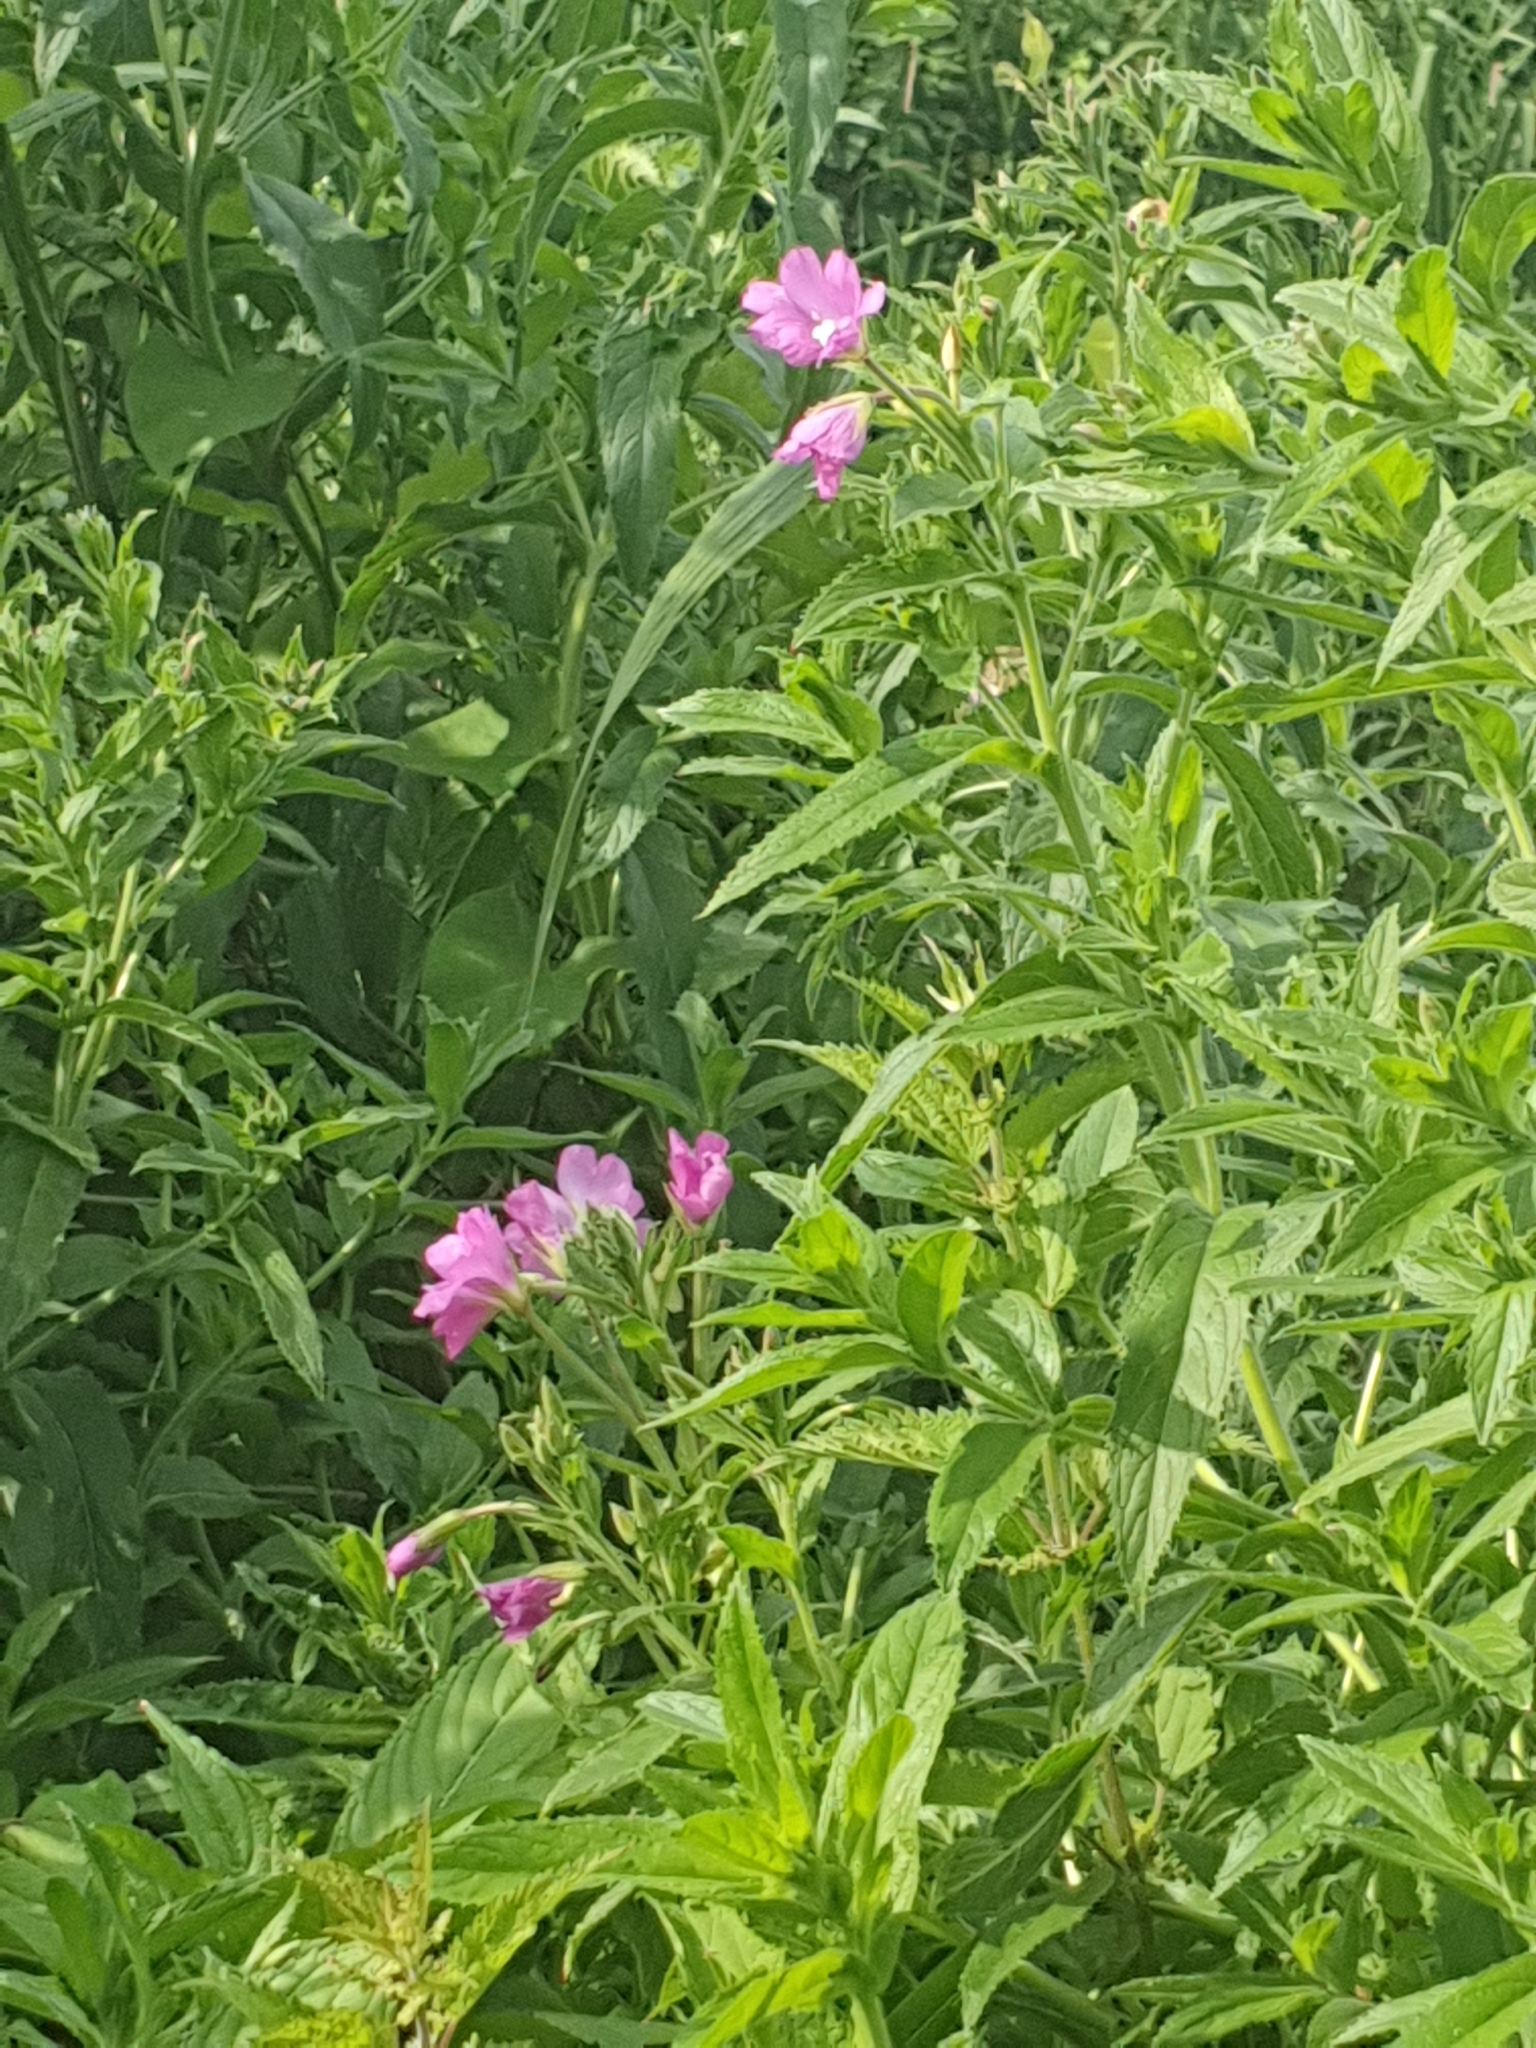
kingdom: Plantae
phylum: Tracheophyta
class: Magnoliopsida
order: Myrtales
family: Onagraceae
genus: Epilobium
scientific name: Epilobium hirsutum
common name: Great willowherb
